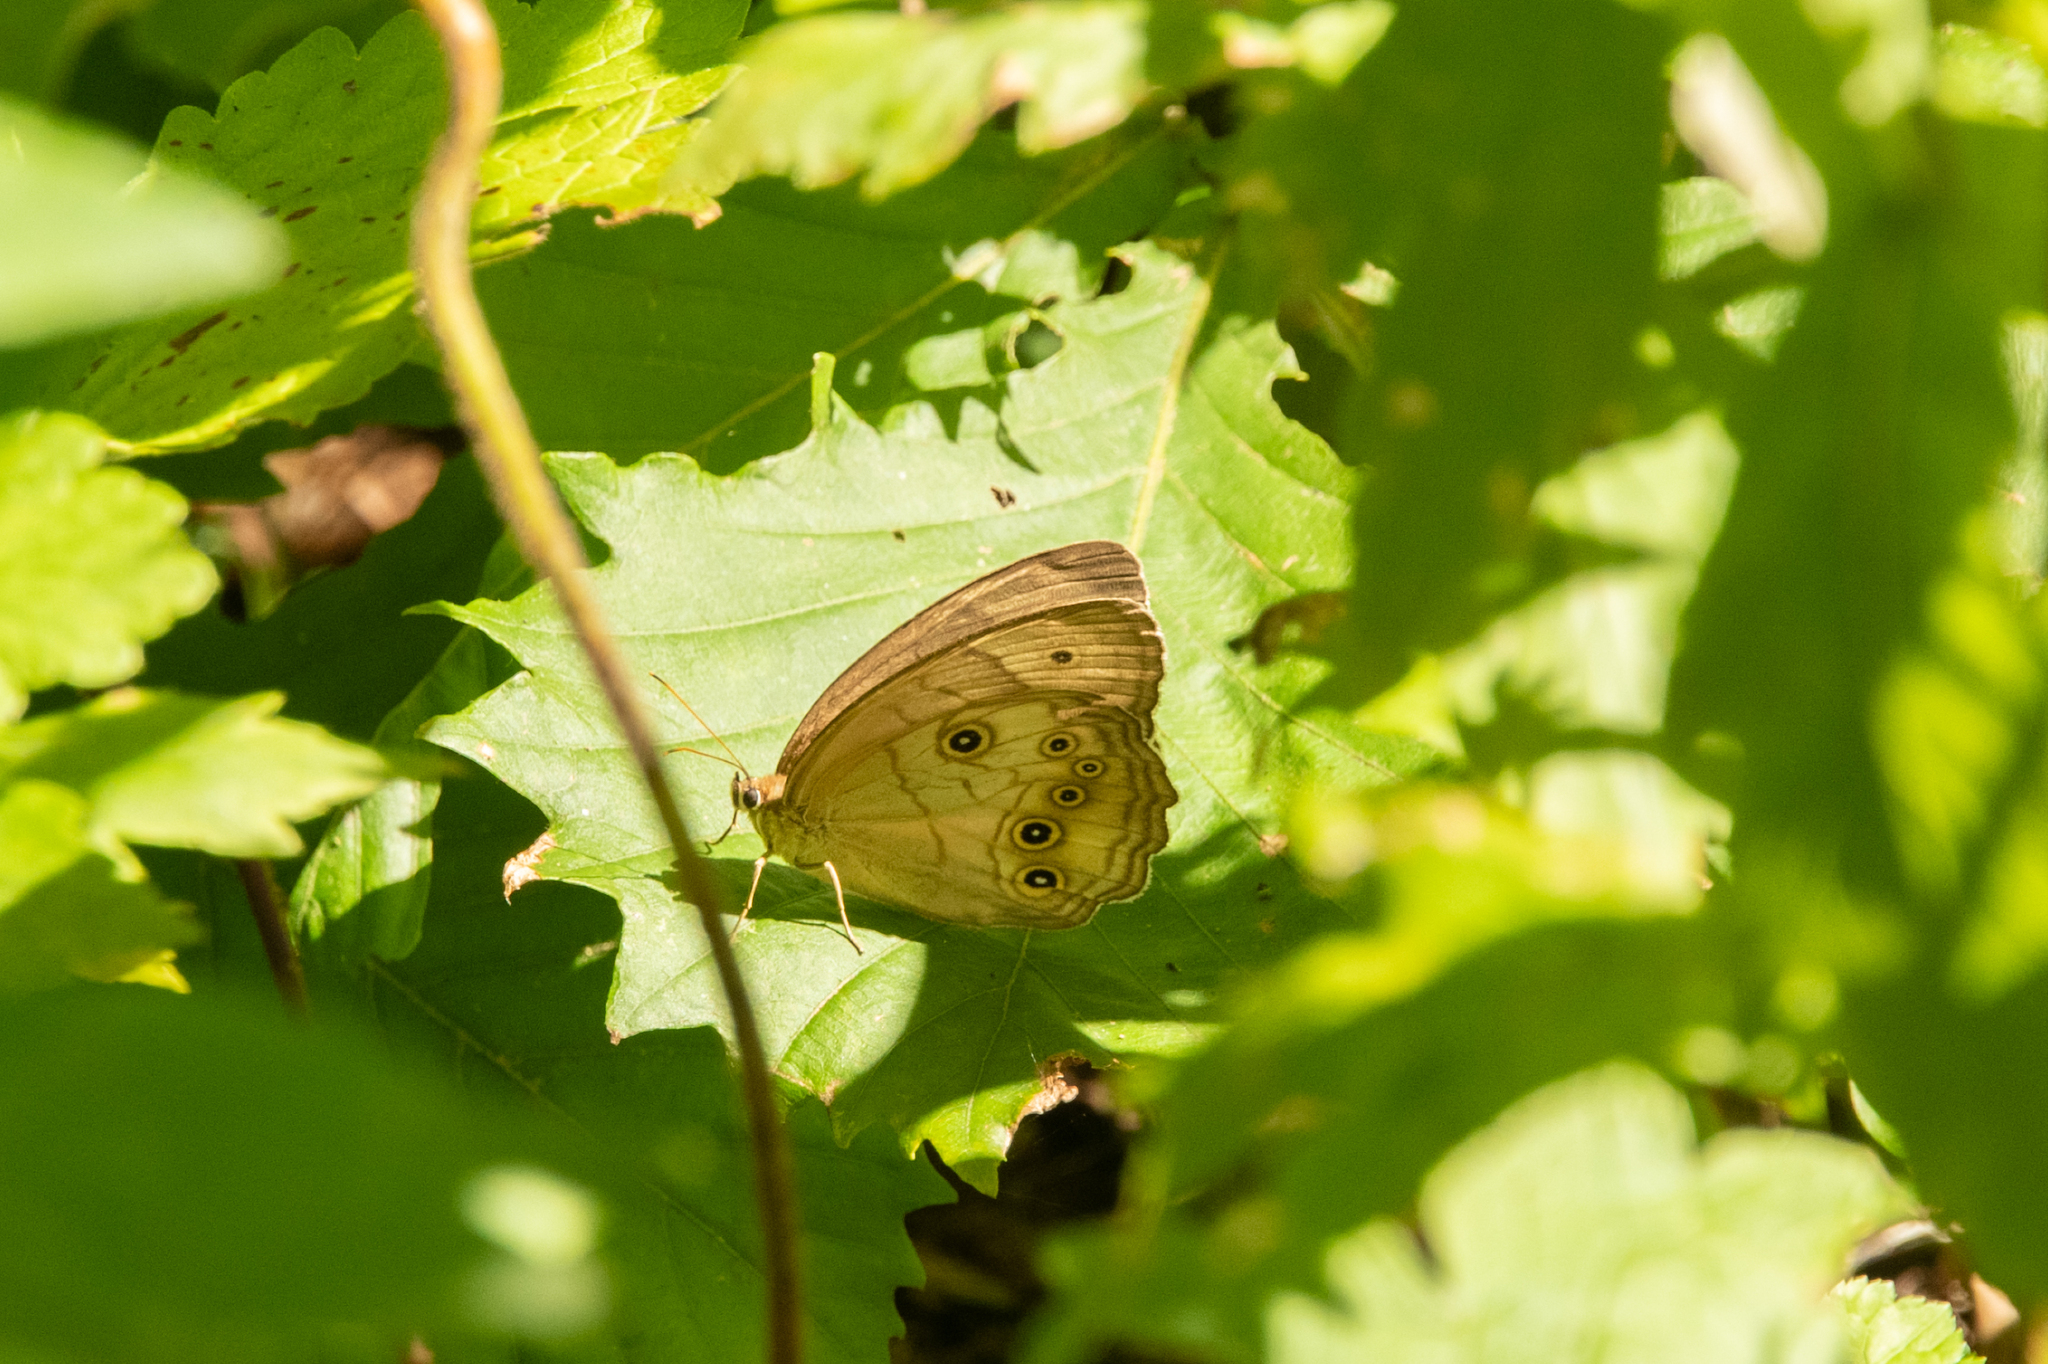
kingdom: Animalia
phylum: Arthropoda
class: Insecta
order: Lepidoptera
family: Nymphalidae
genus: Ninguta
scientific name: Ninguta schrenckii
